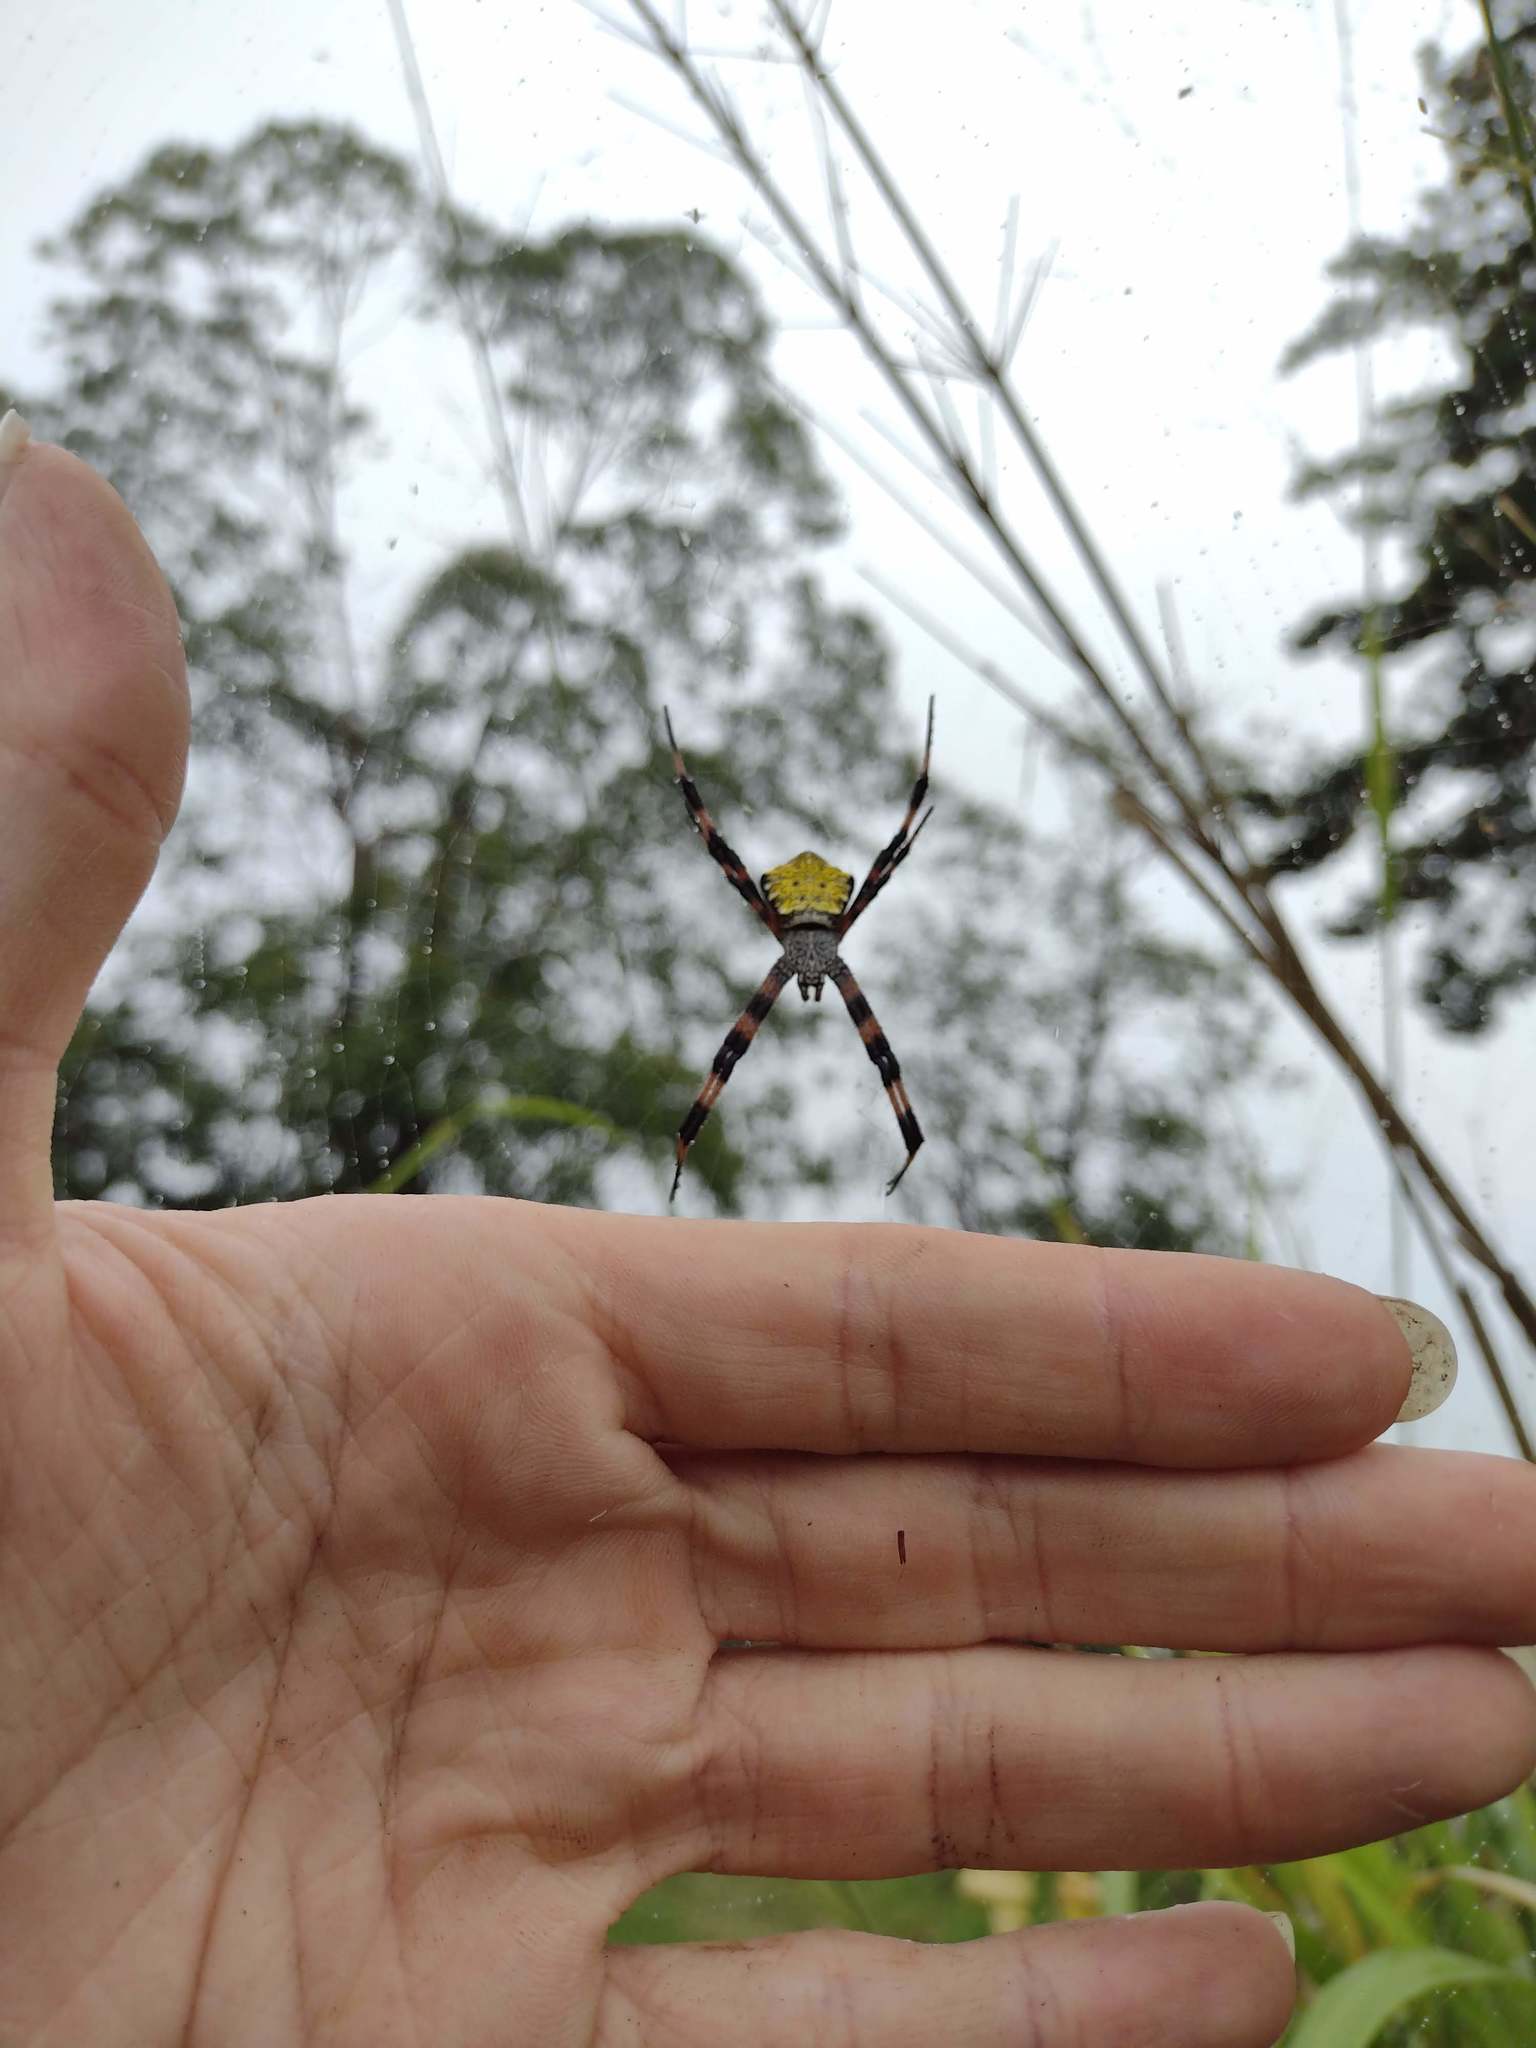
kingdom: Animalia
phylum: Arthropoda
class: Arachnida
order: Araneae
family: Araneidae
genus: Argiope
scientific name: Argiope appensa
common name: Garden spider
